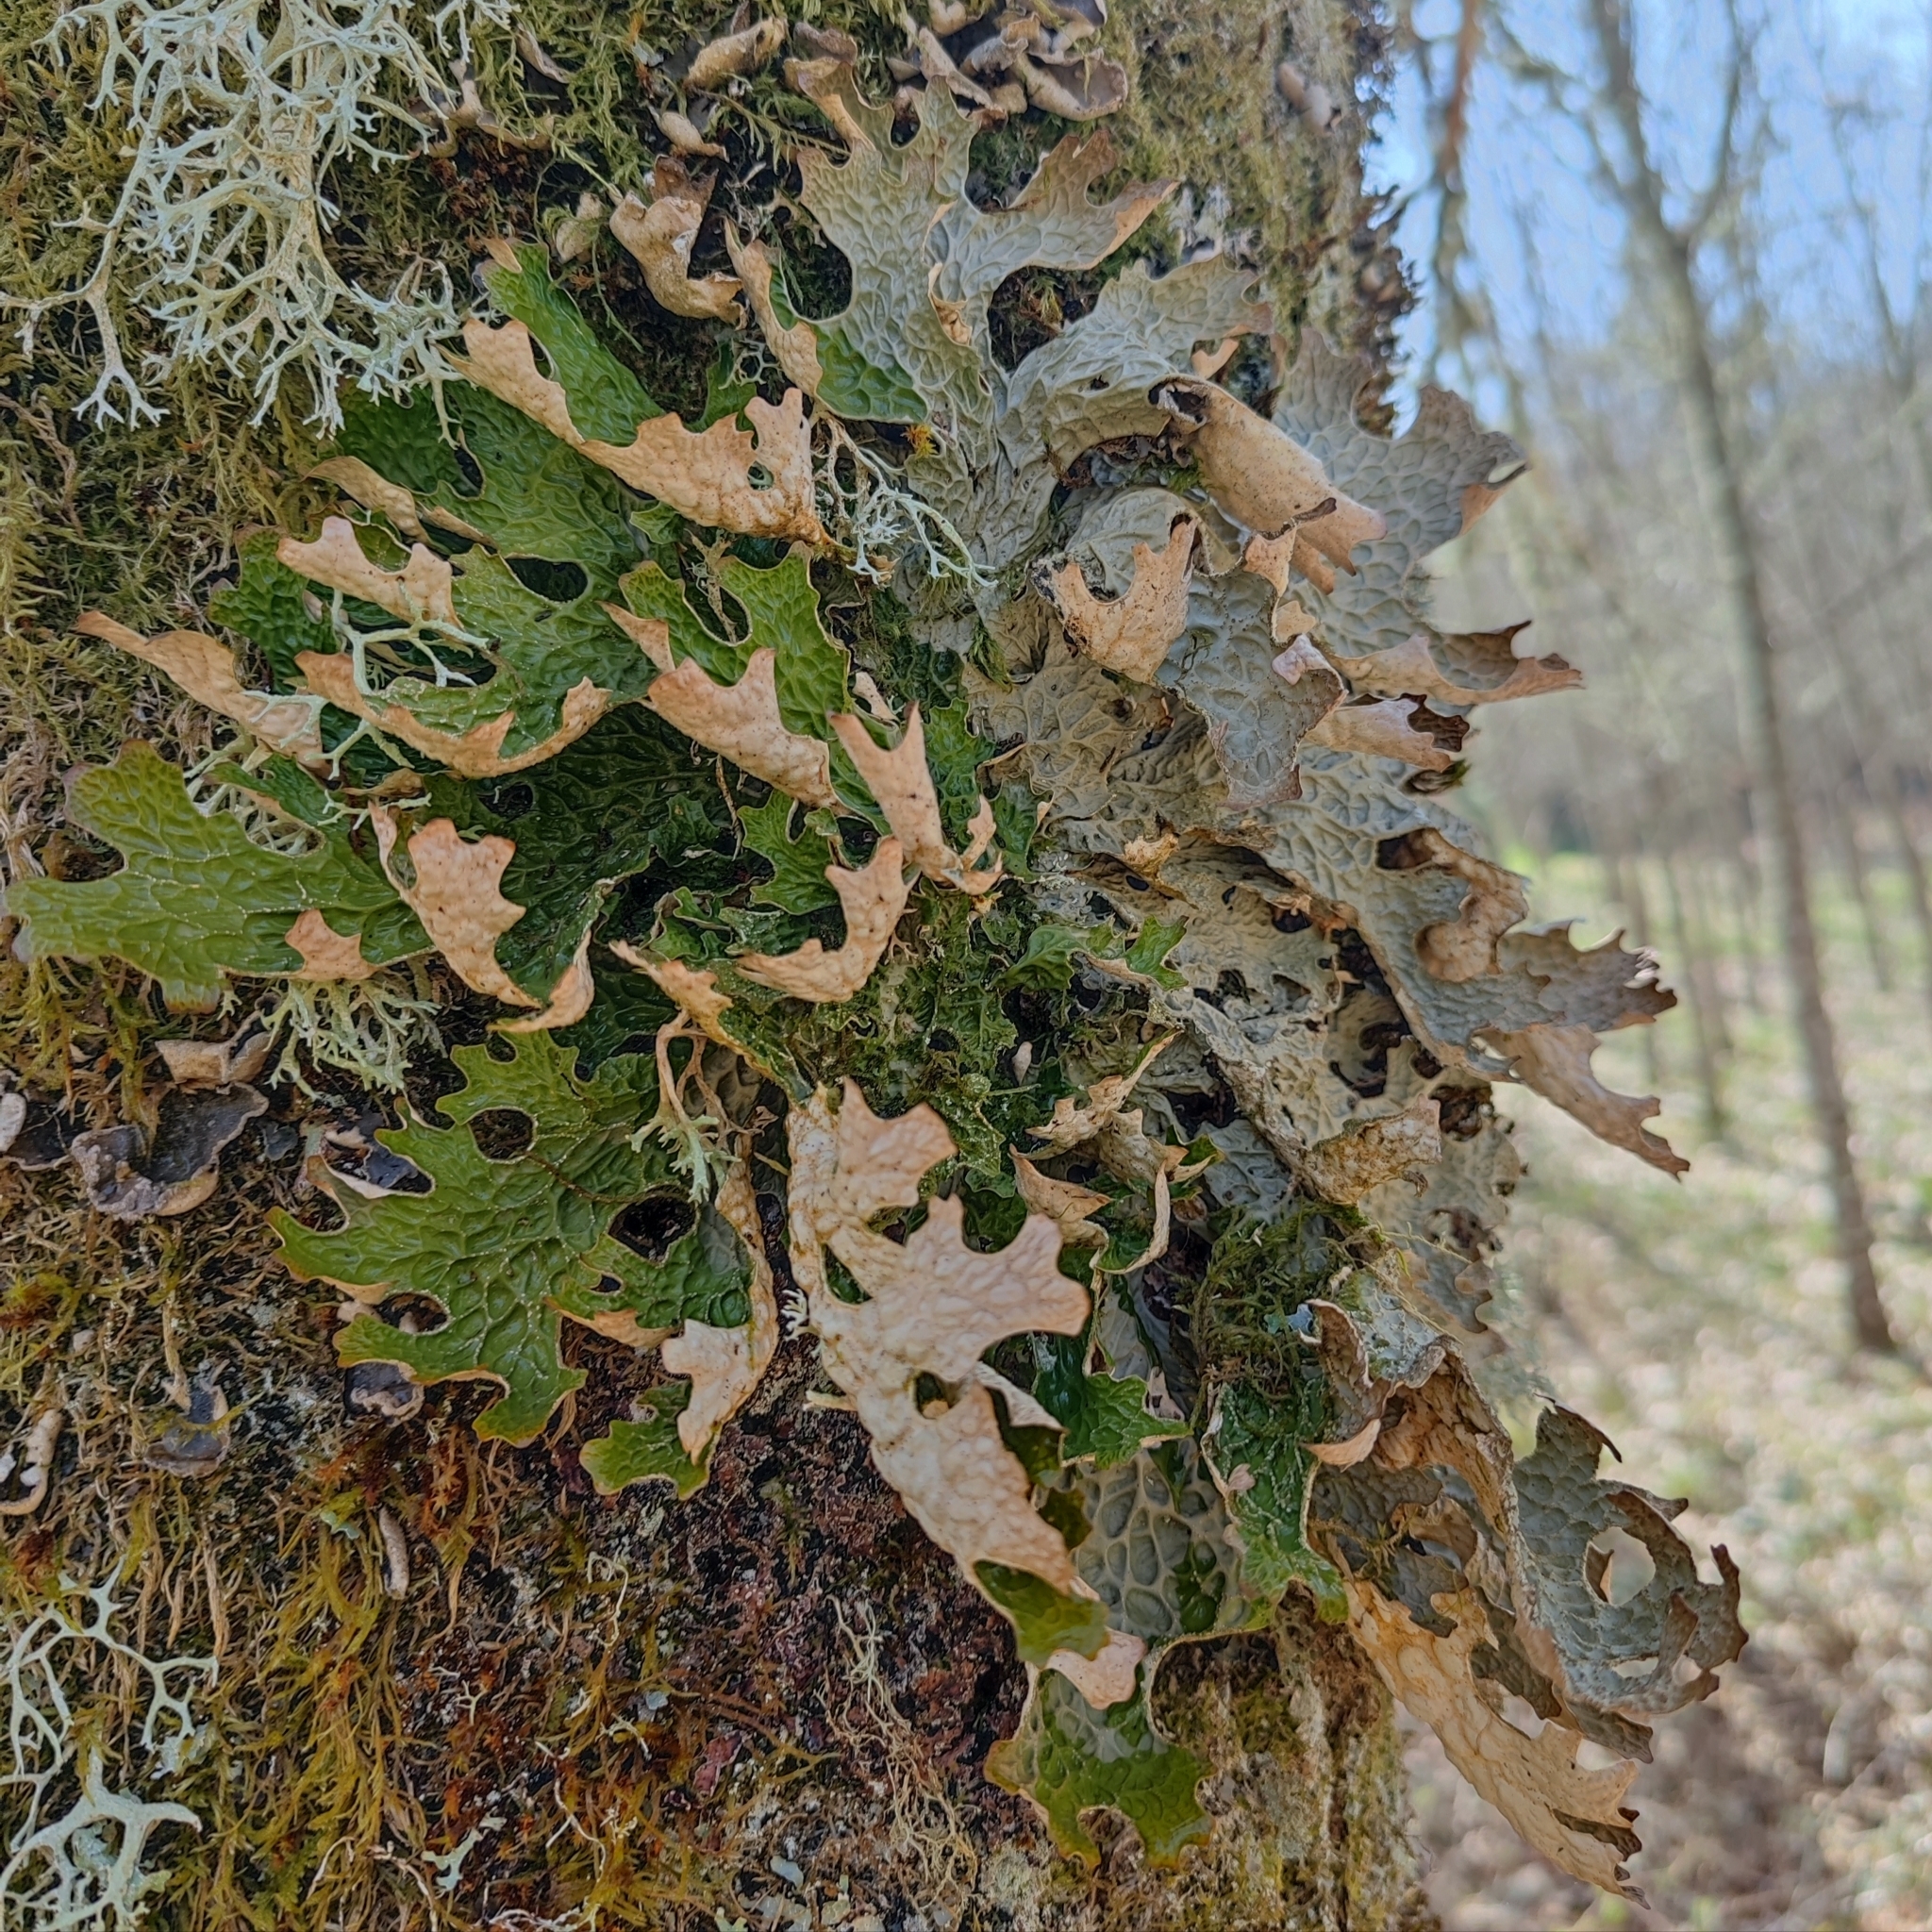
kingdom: Fungi
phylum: Ascomycota
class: Lecanoromycetes
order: Peltigerales
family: Lobariaceae
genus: Lobaria
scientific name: Lobaria pulmonaria
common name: Lungwort
